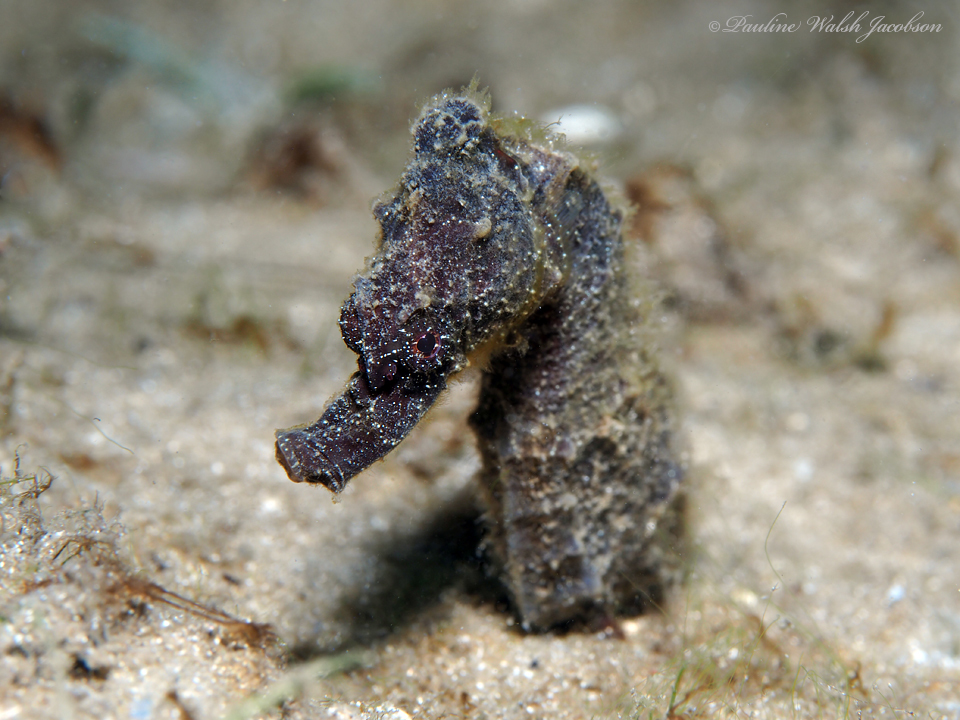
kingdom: Animalia
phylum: Chordata
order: Syngnathiformes
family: Syngnathidae
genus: Hippocampus
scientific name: Hippocampus erectus
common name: Lined seahorse
